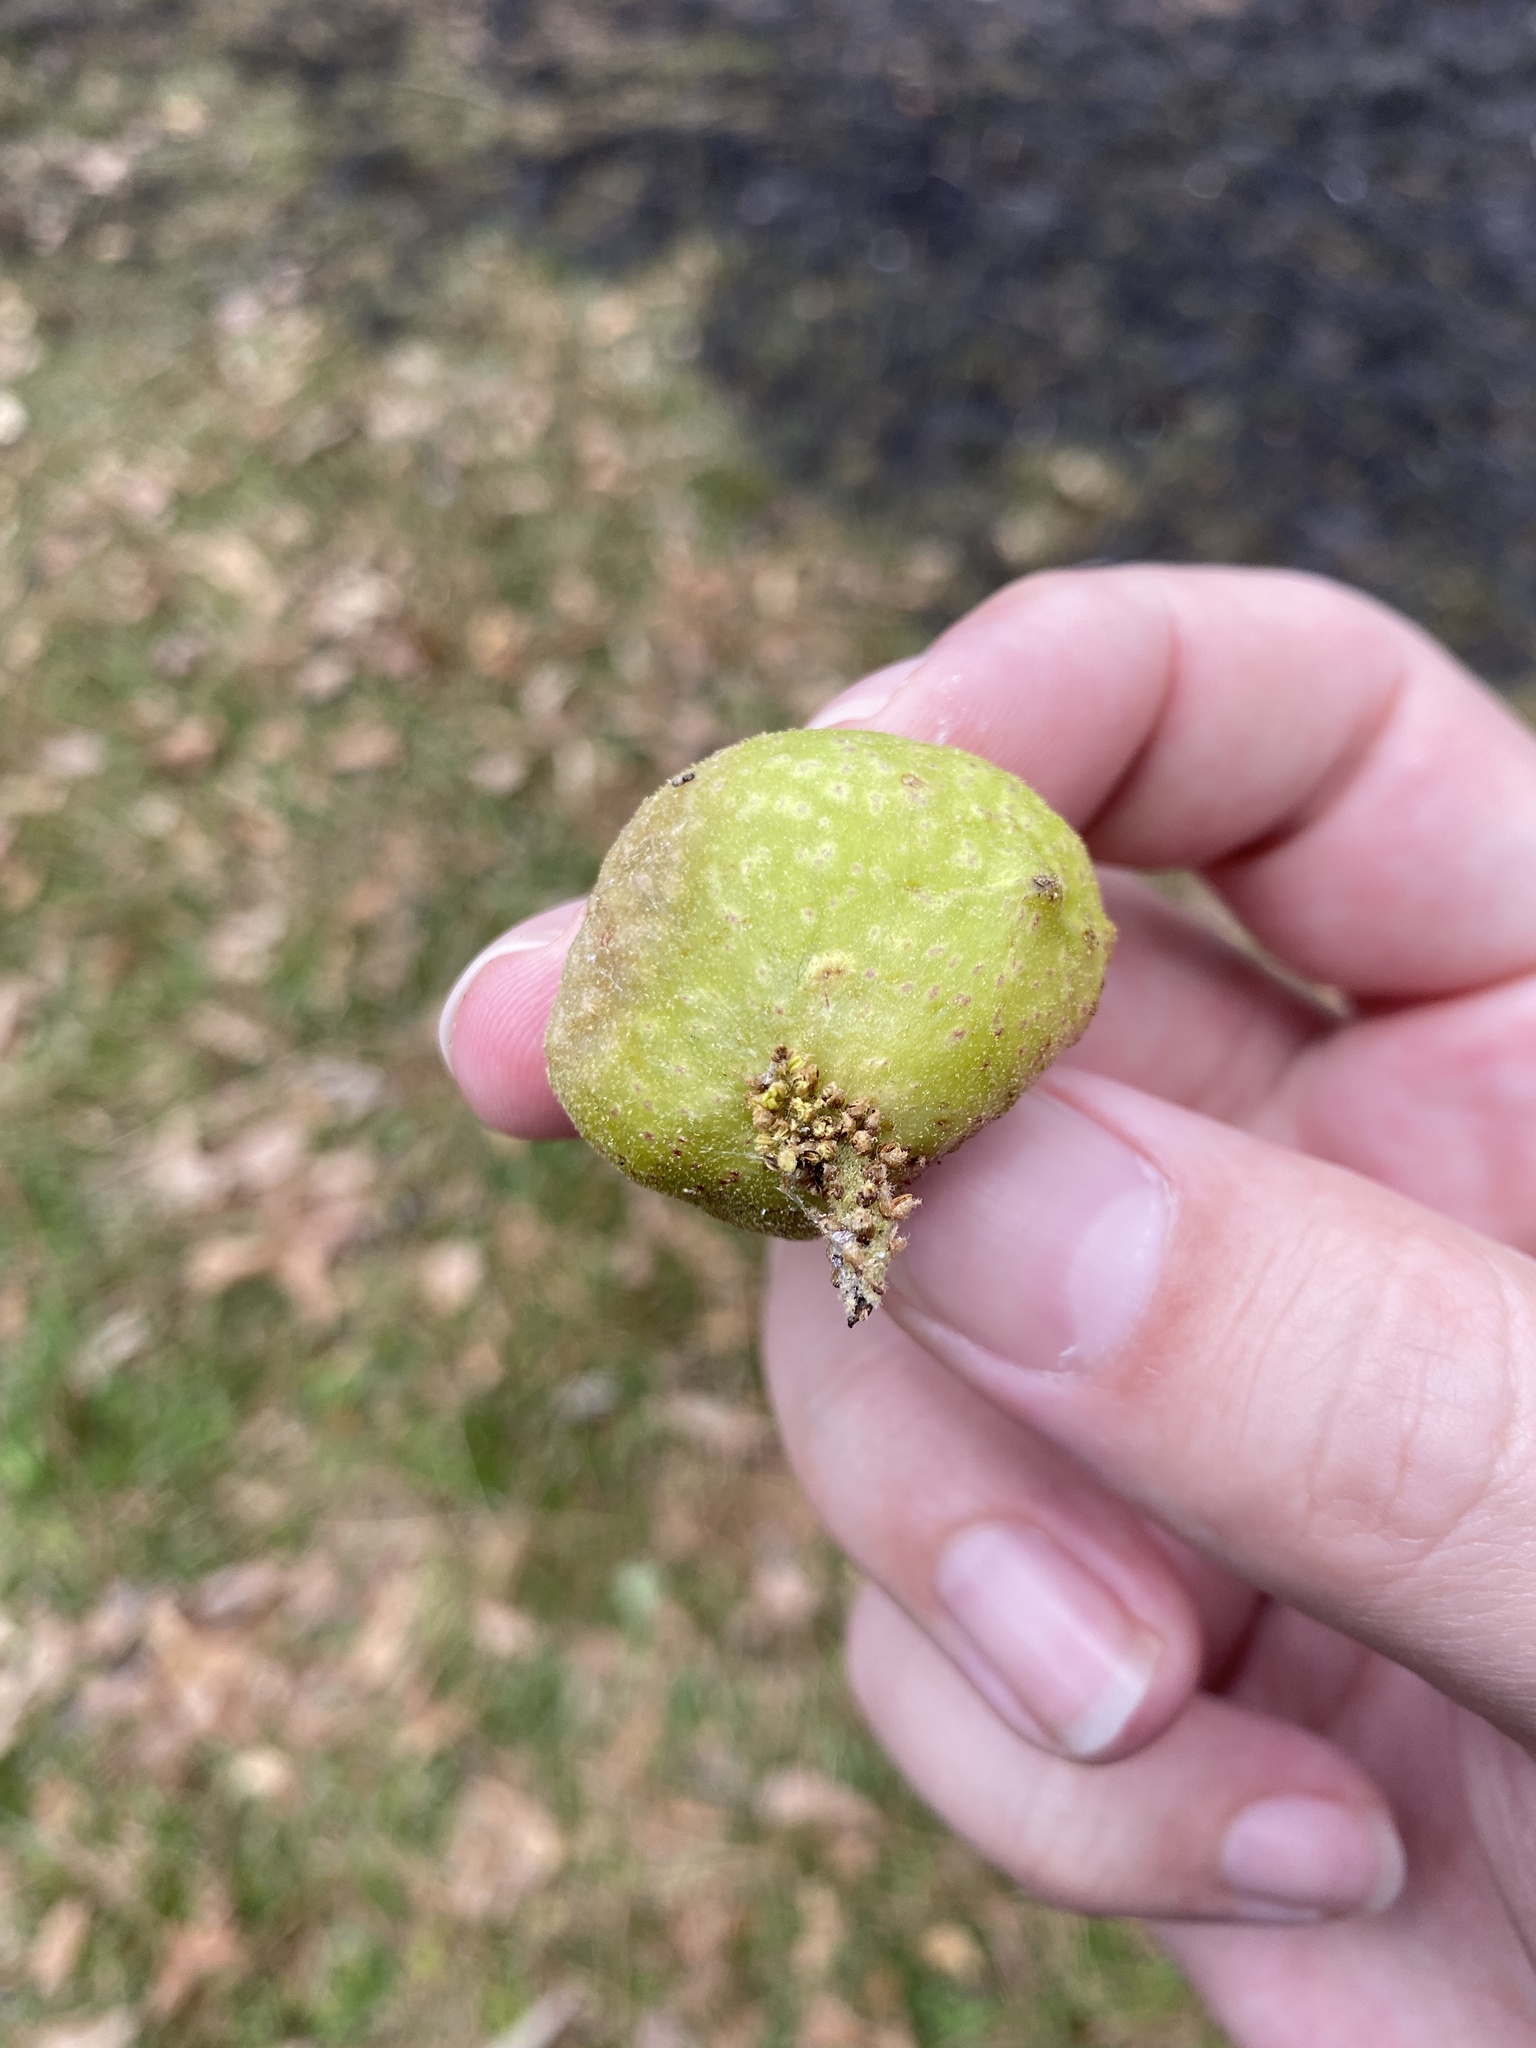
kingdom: Animalia
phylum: Arthropoda
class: Insecta
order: Hymenoptera
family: Cynipidae
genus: Amphibolips
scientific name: Amphibolips
